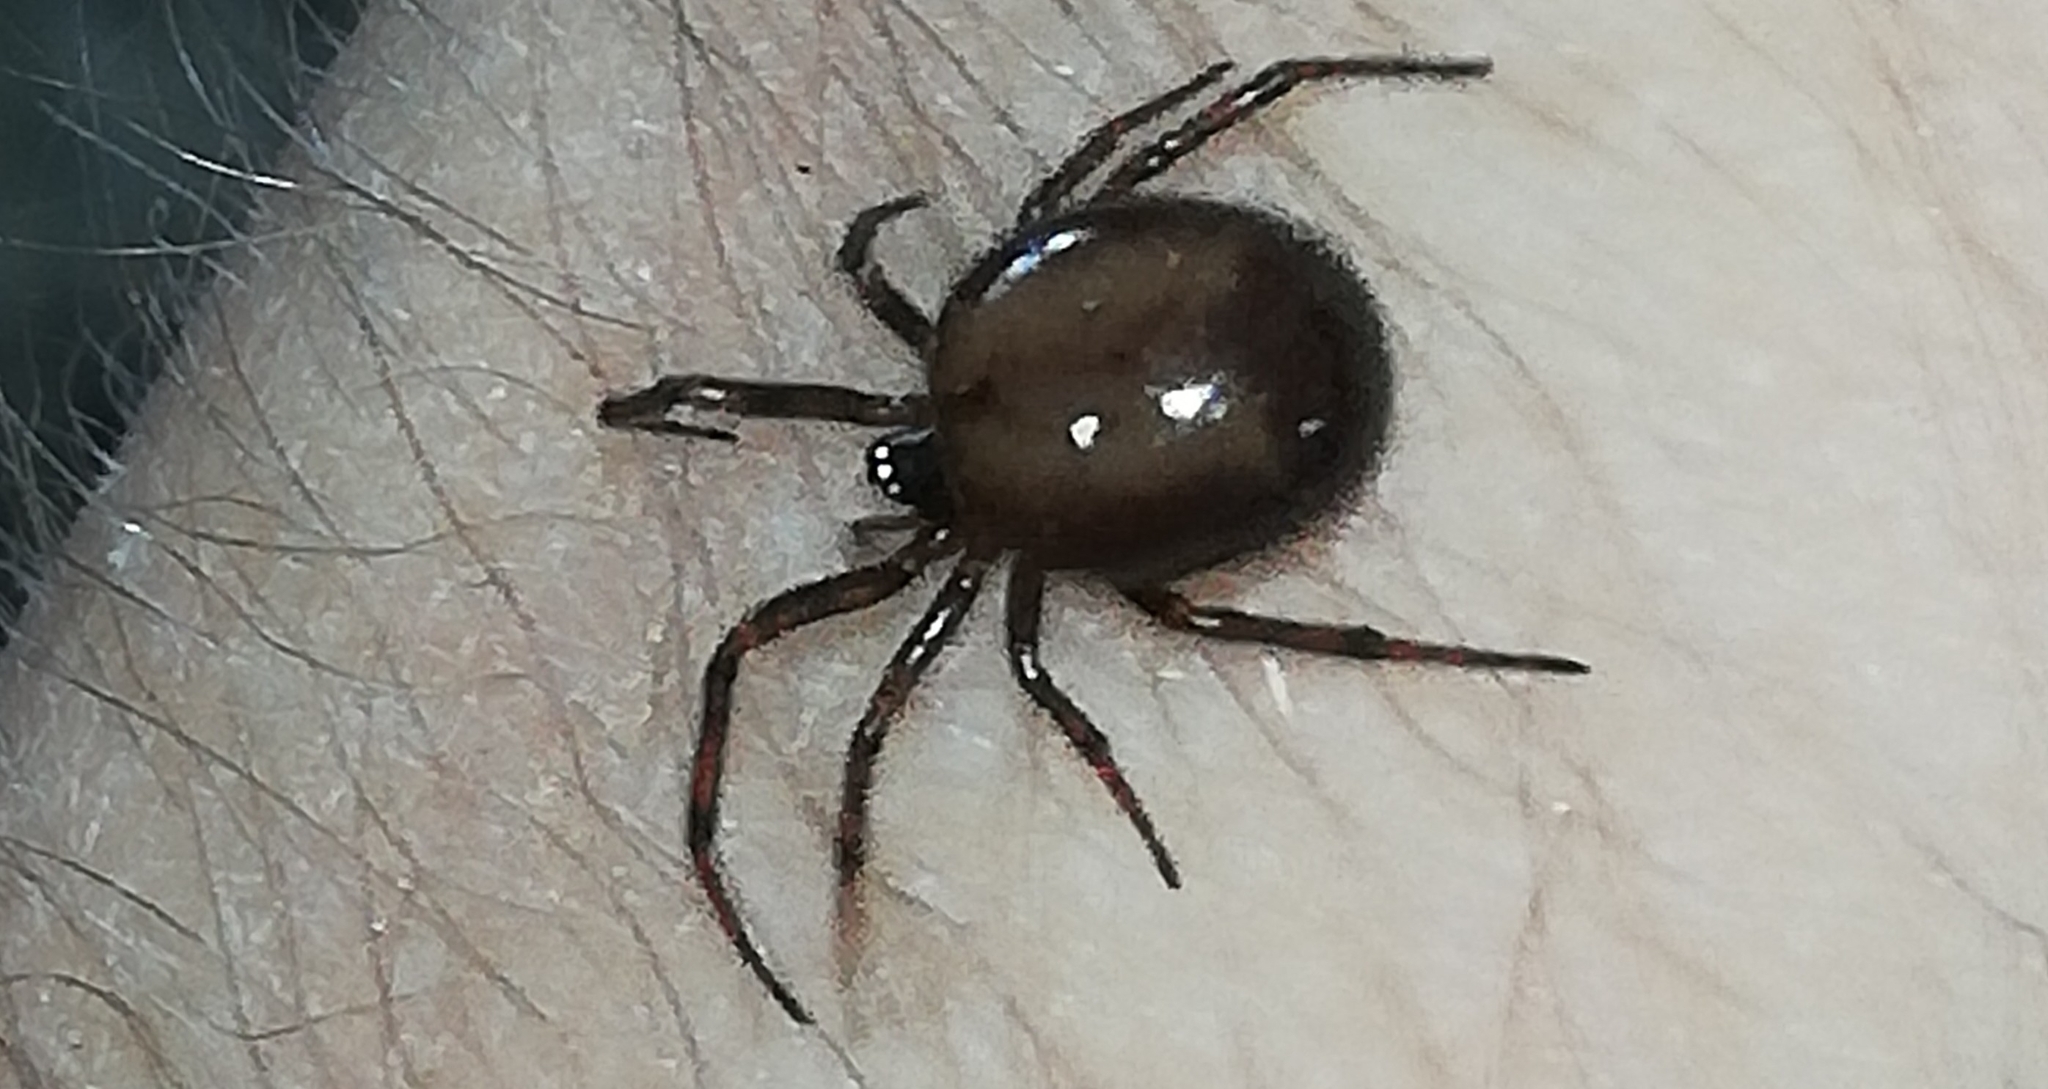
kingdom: Animalia
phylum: Arthropoda
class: Arachnida
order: Araneae
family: Theridiidae
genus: Steatoda
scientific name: Steatoda bipunctata
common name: False widow
